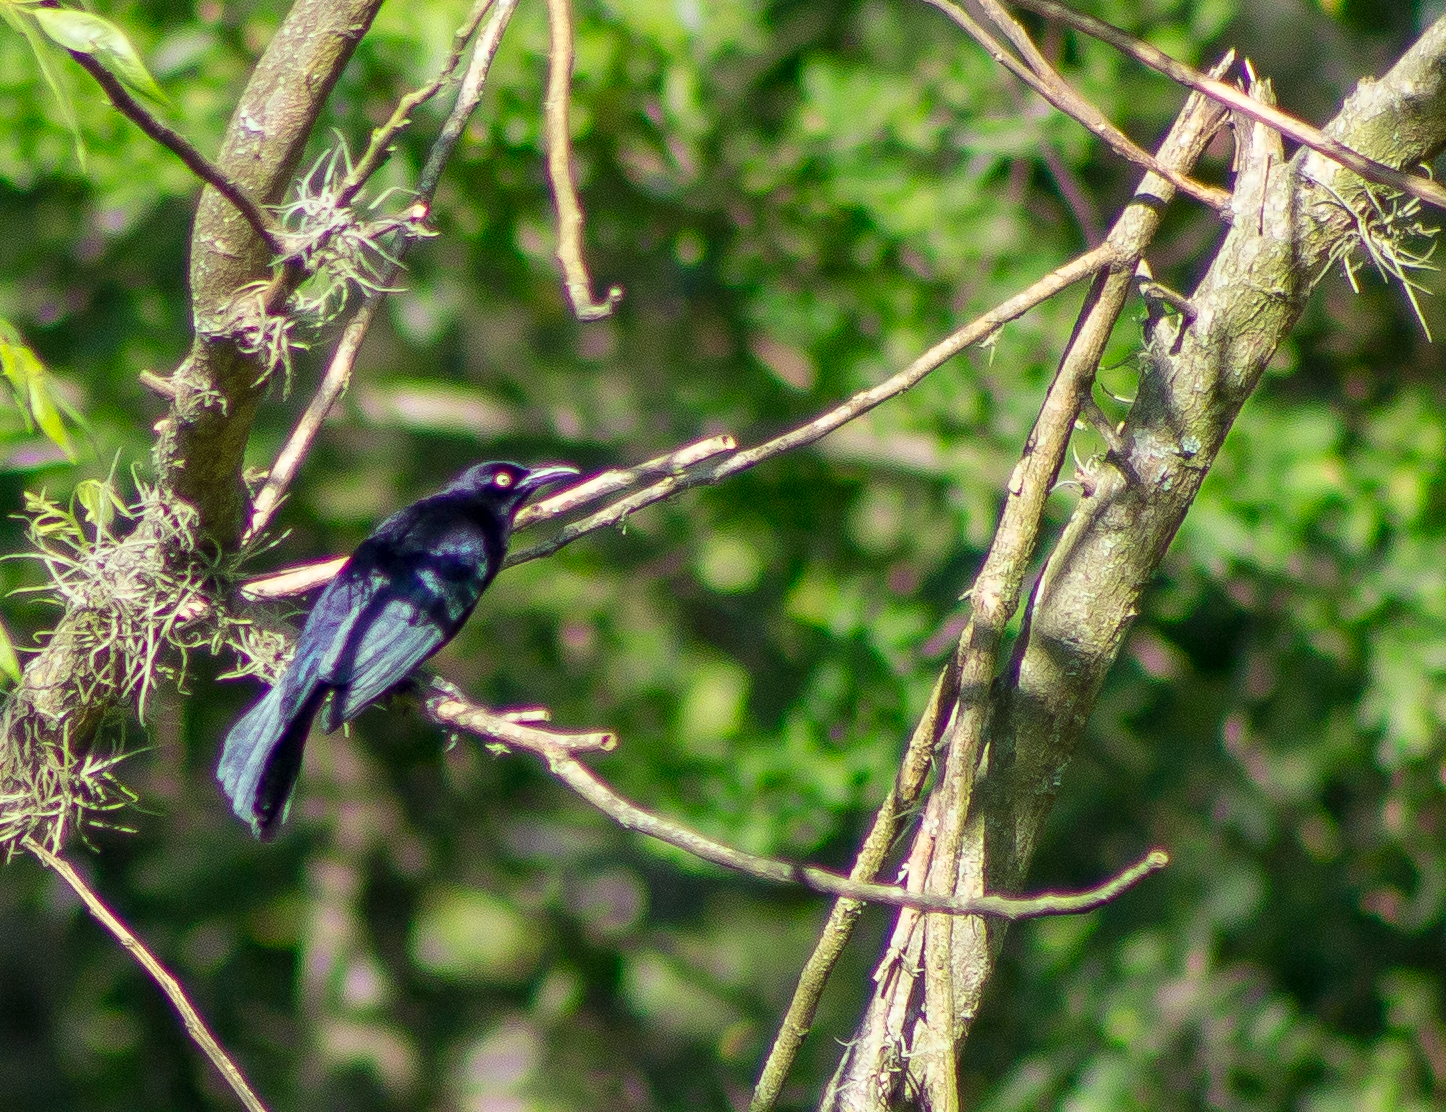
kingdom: Animalia
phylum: Chordata
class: Aves
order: Passeriformes
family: Icteridae
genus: Quiscalus
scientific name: Quiscalus lugubris
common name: Carib grackle
